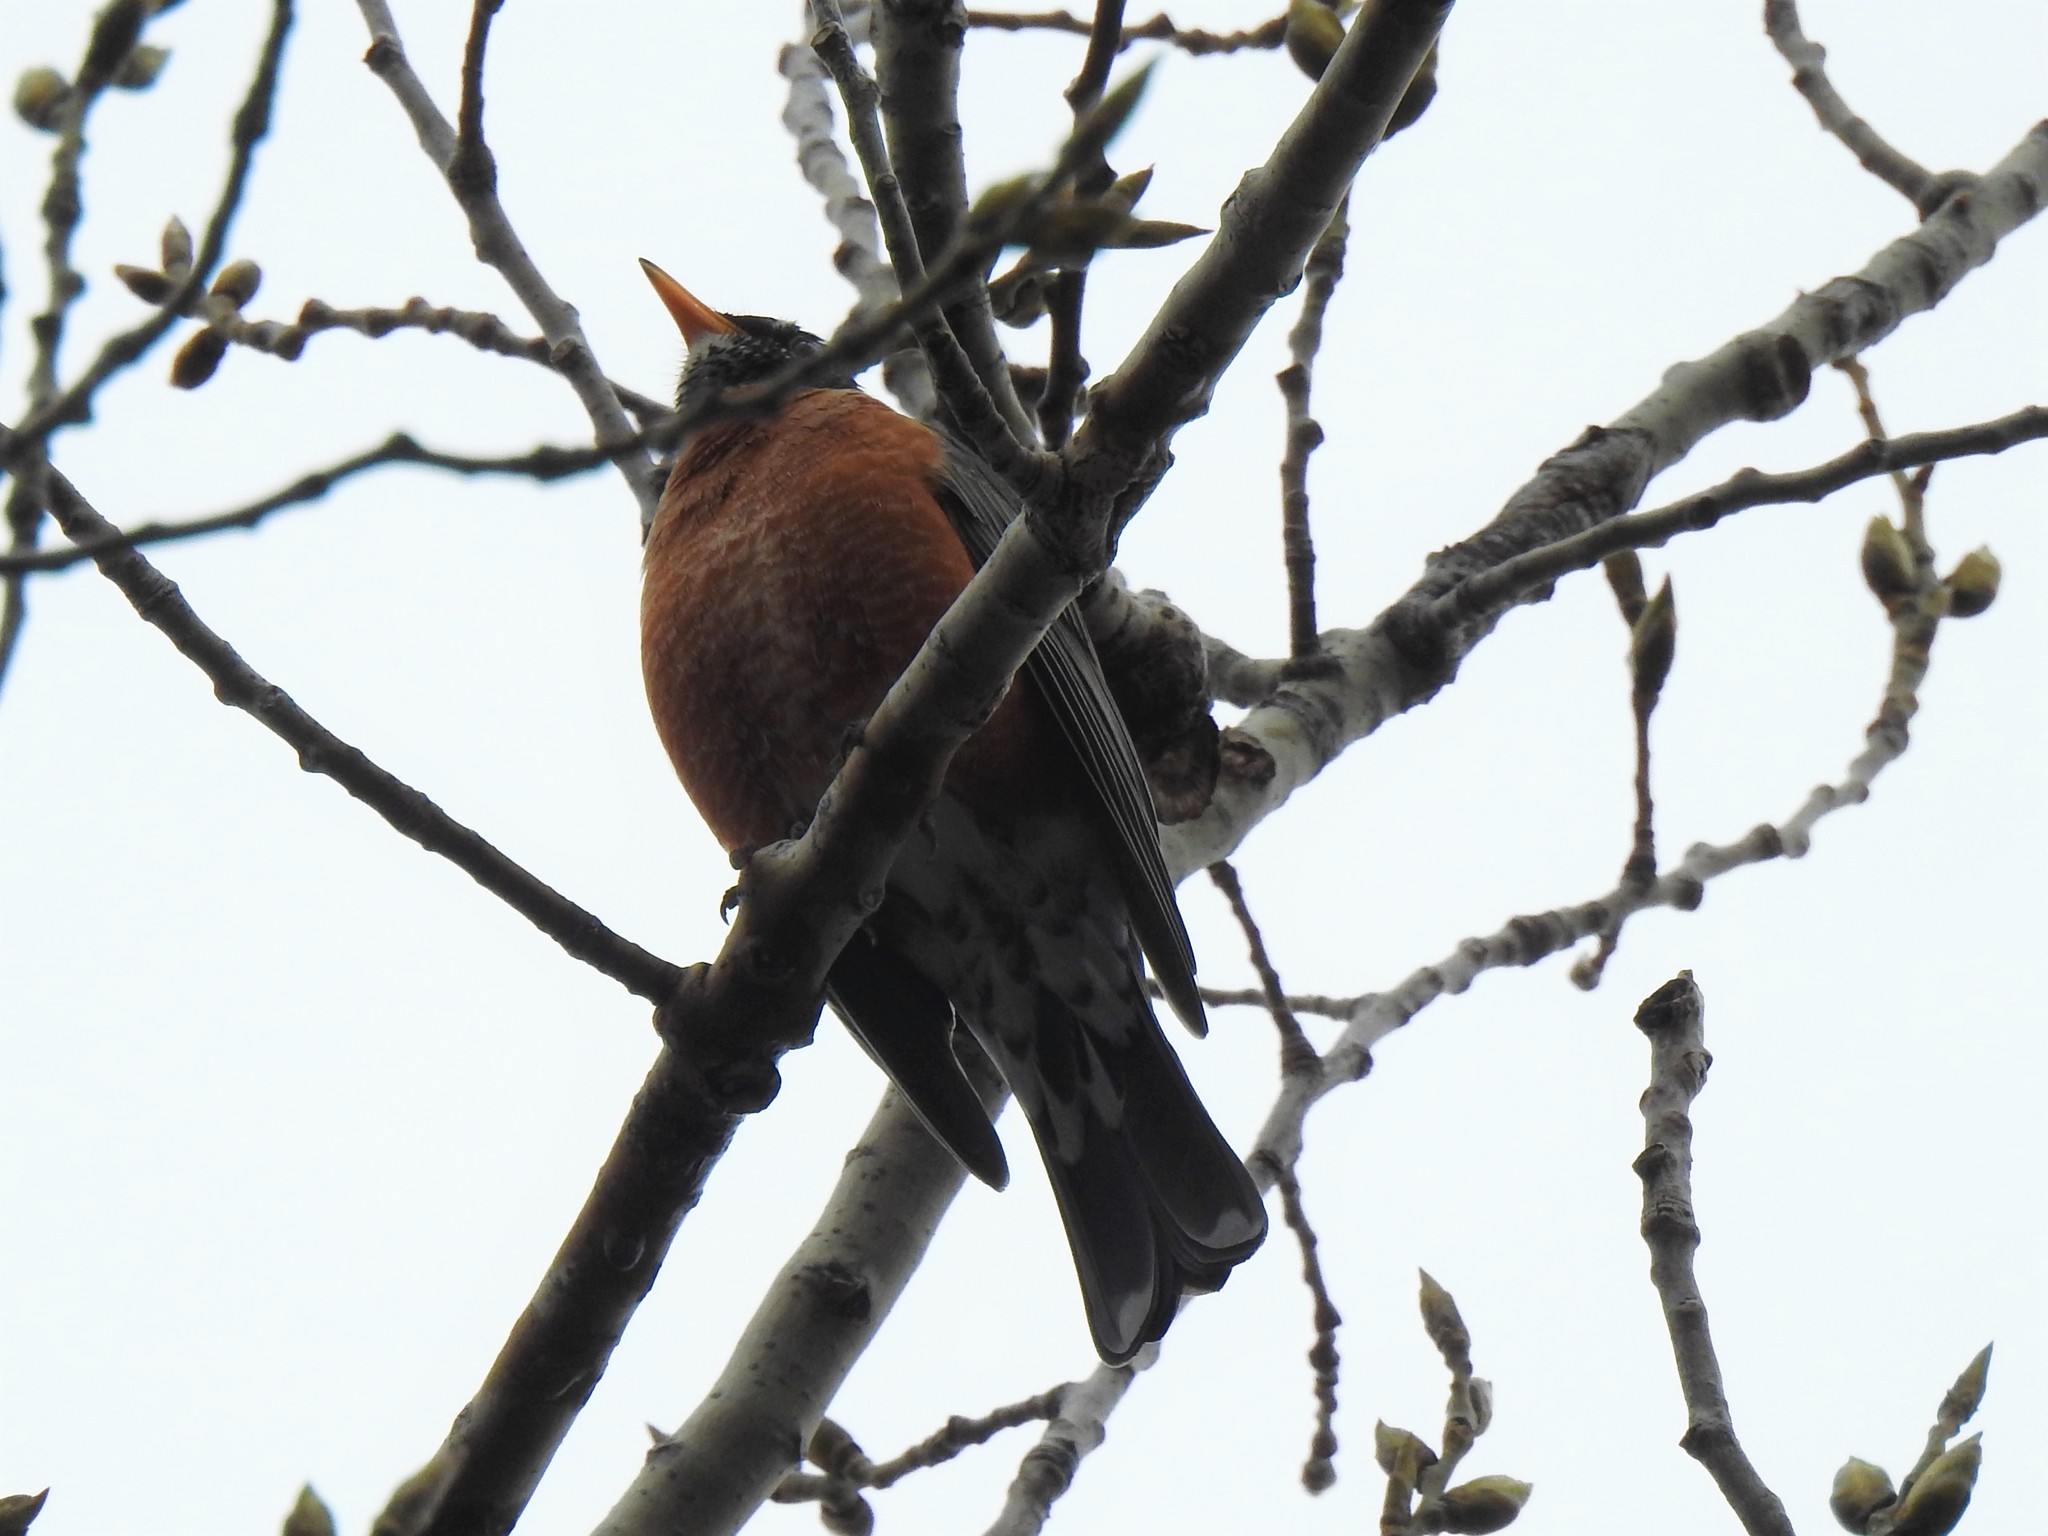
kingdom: Animalia
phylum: Chordata
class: Aves
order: Passeriformes
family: Turdidae
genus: Turdus
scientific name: Turdus migratorius
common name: American robin
